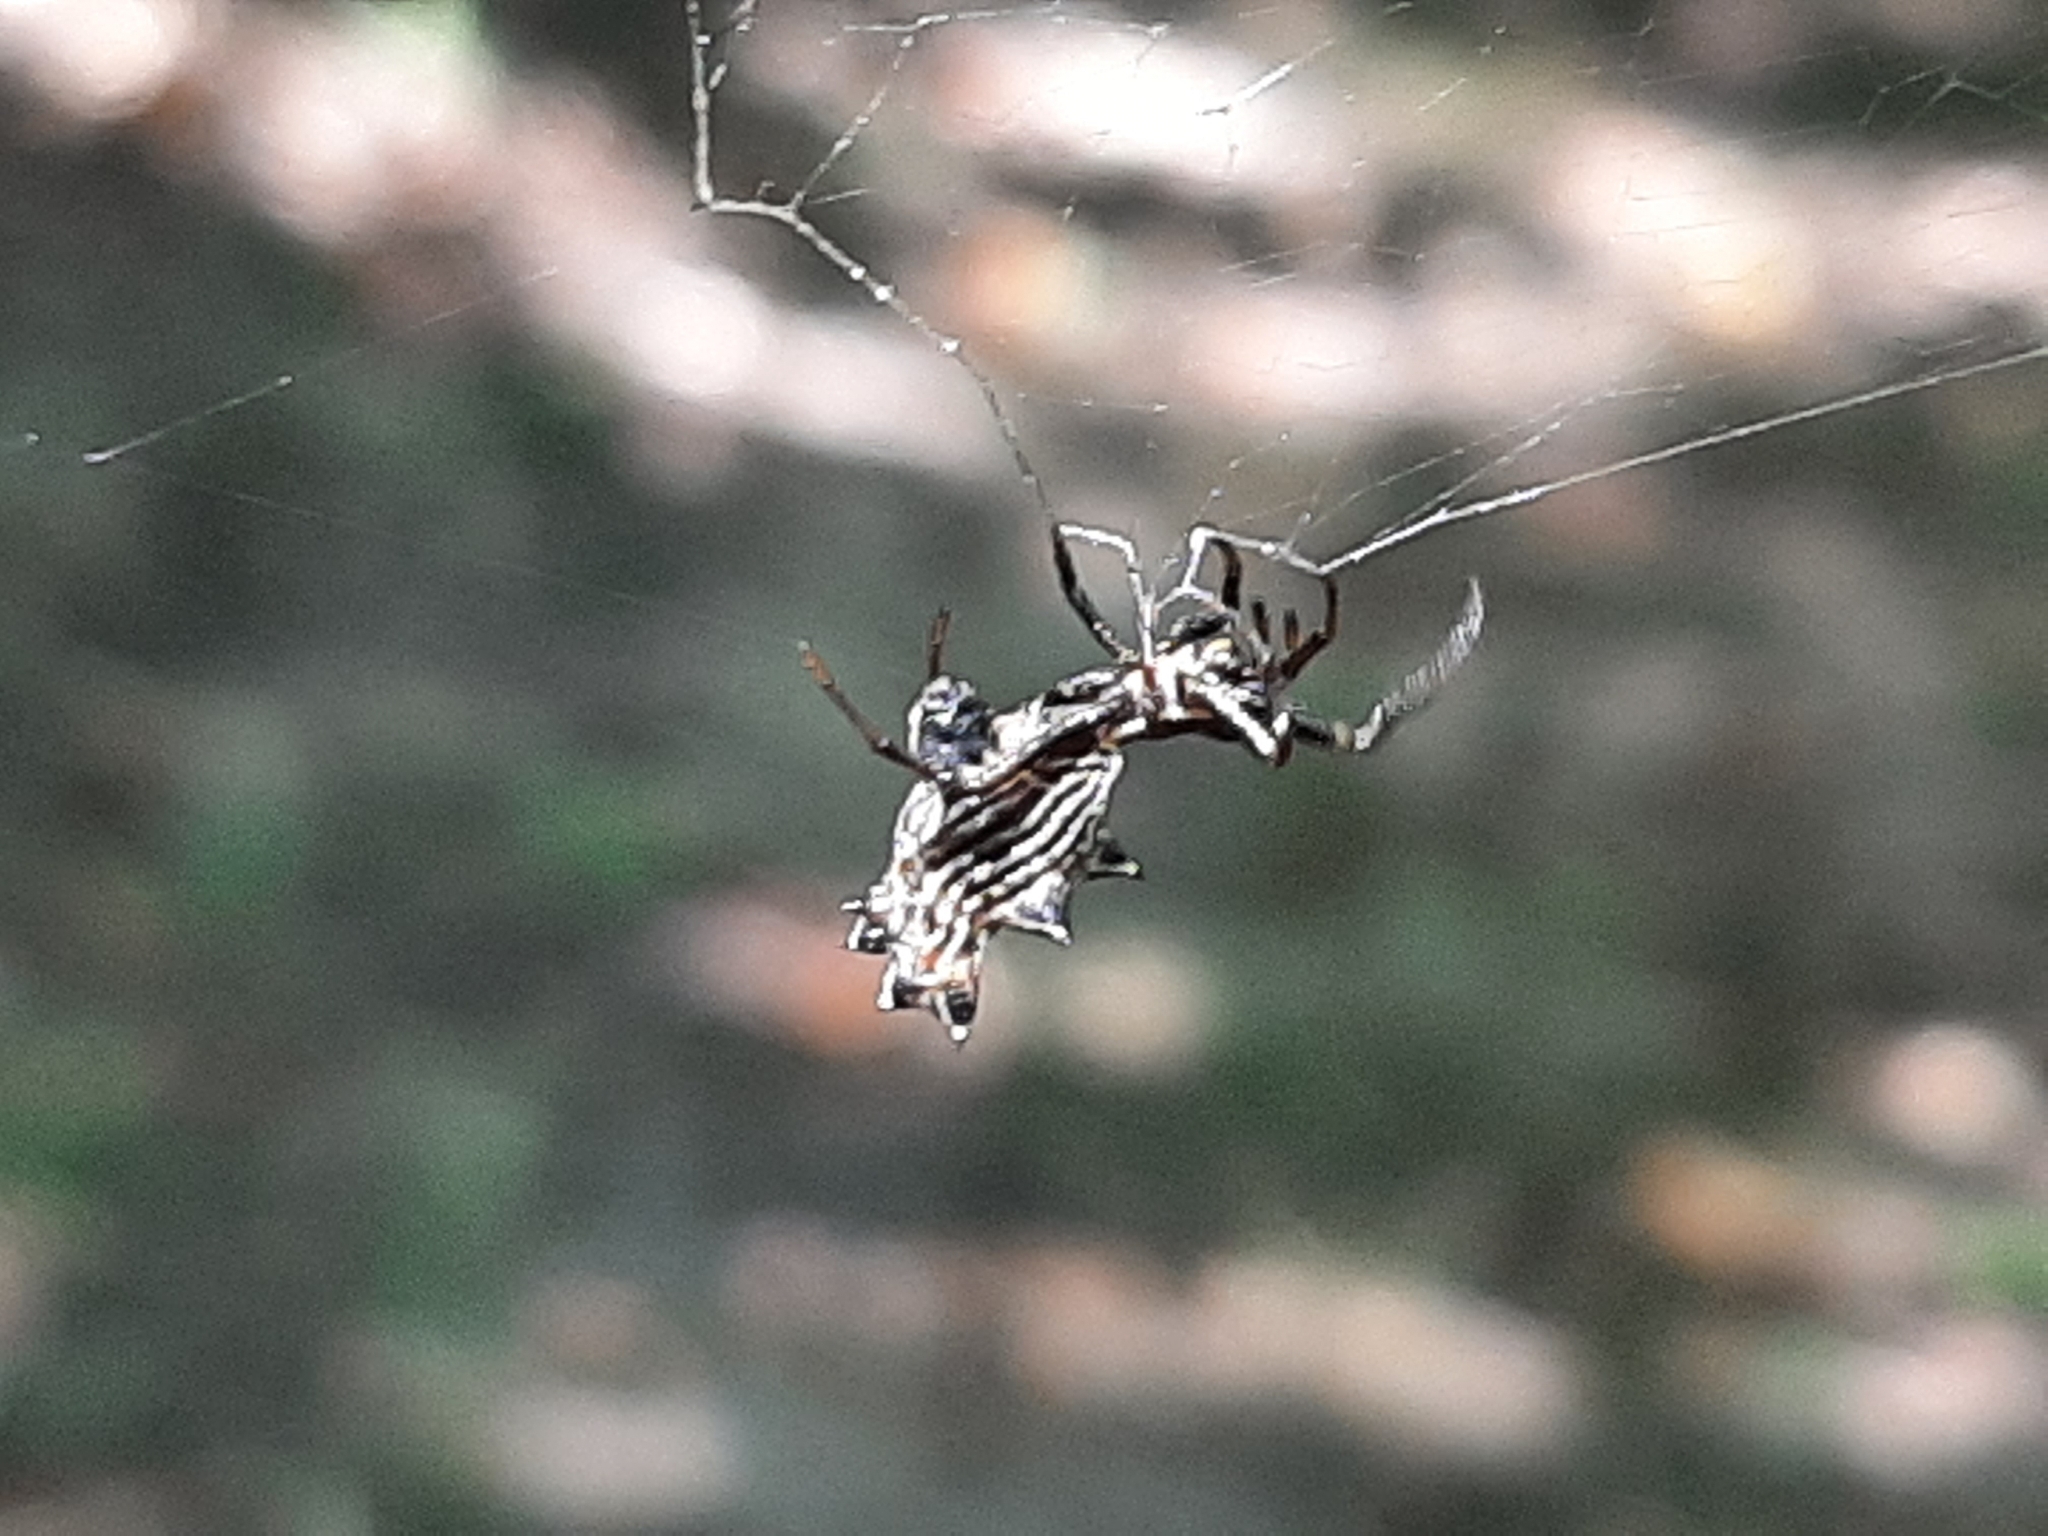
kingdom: Animalia
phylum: Arthropoda
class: Arachnida
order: Araneae
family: Araneidae
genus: Micrathena
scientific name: Micrathena gracilis
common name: Orb weavers
